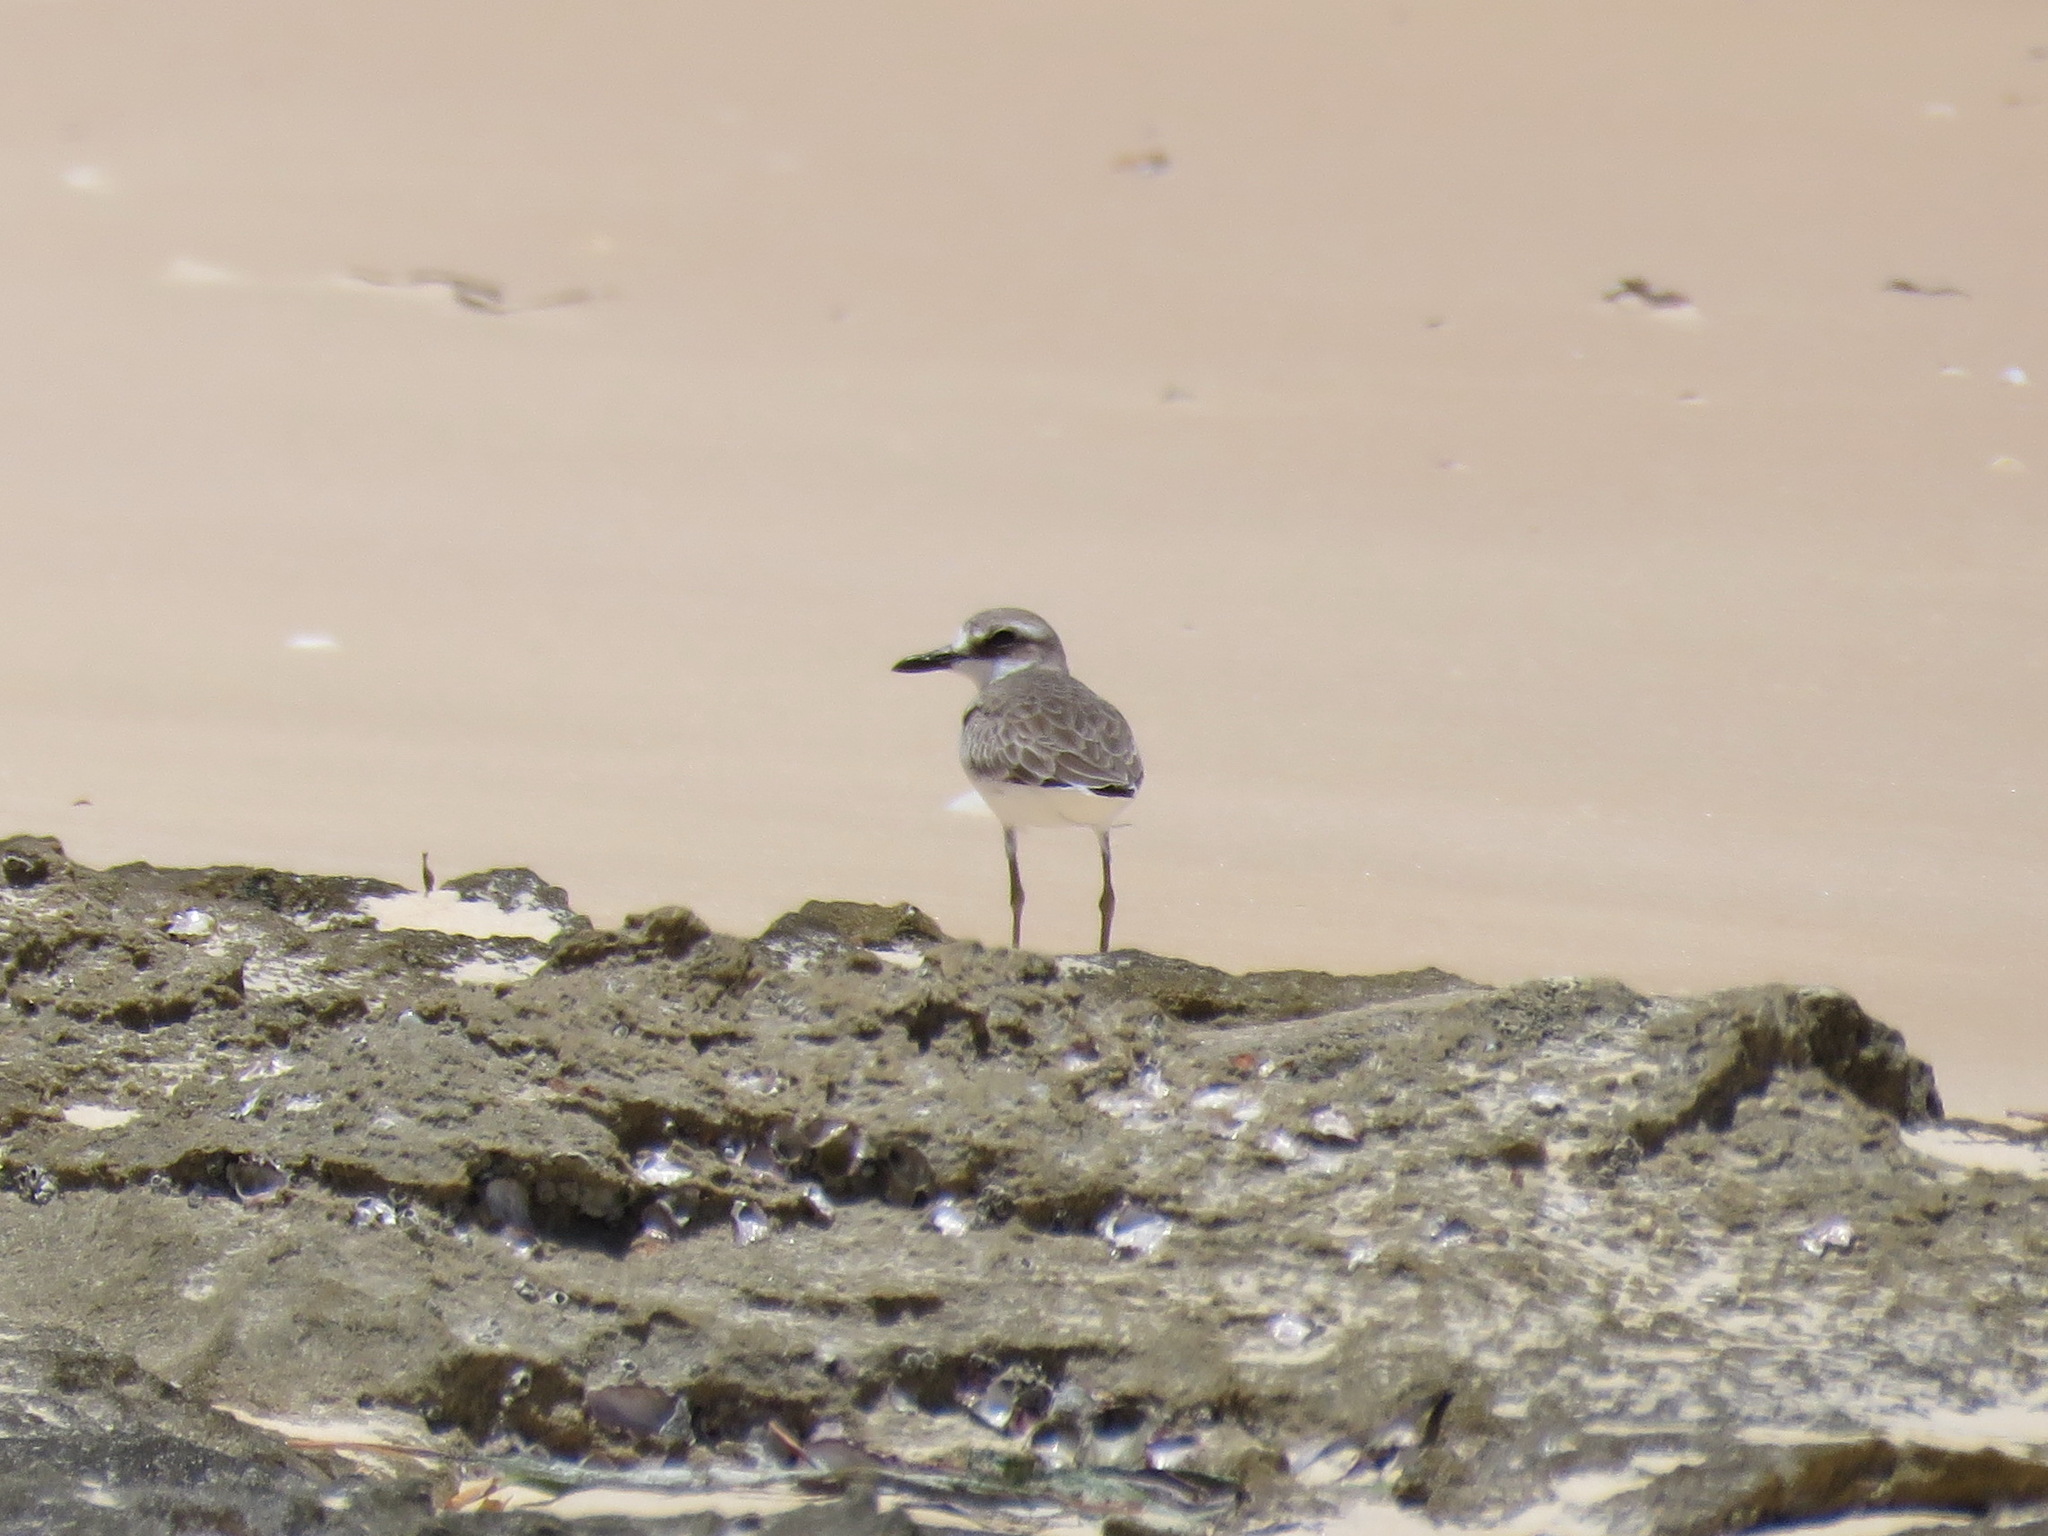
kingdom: Animalia
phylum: Chordata
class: Aves
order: Charadriiformes
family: Charadriidae
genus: Charadrius
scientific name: Charadrius leschenaultii
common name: Greater sand plover
